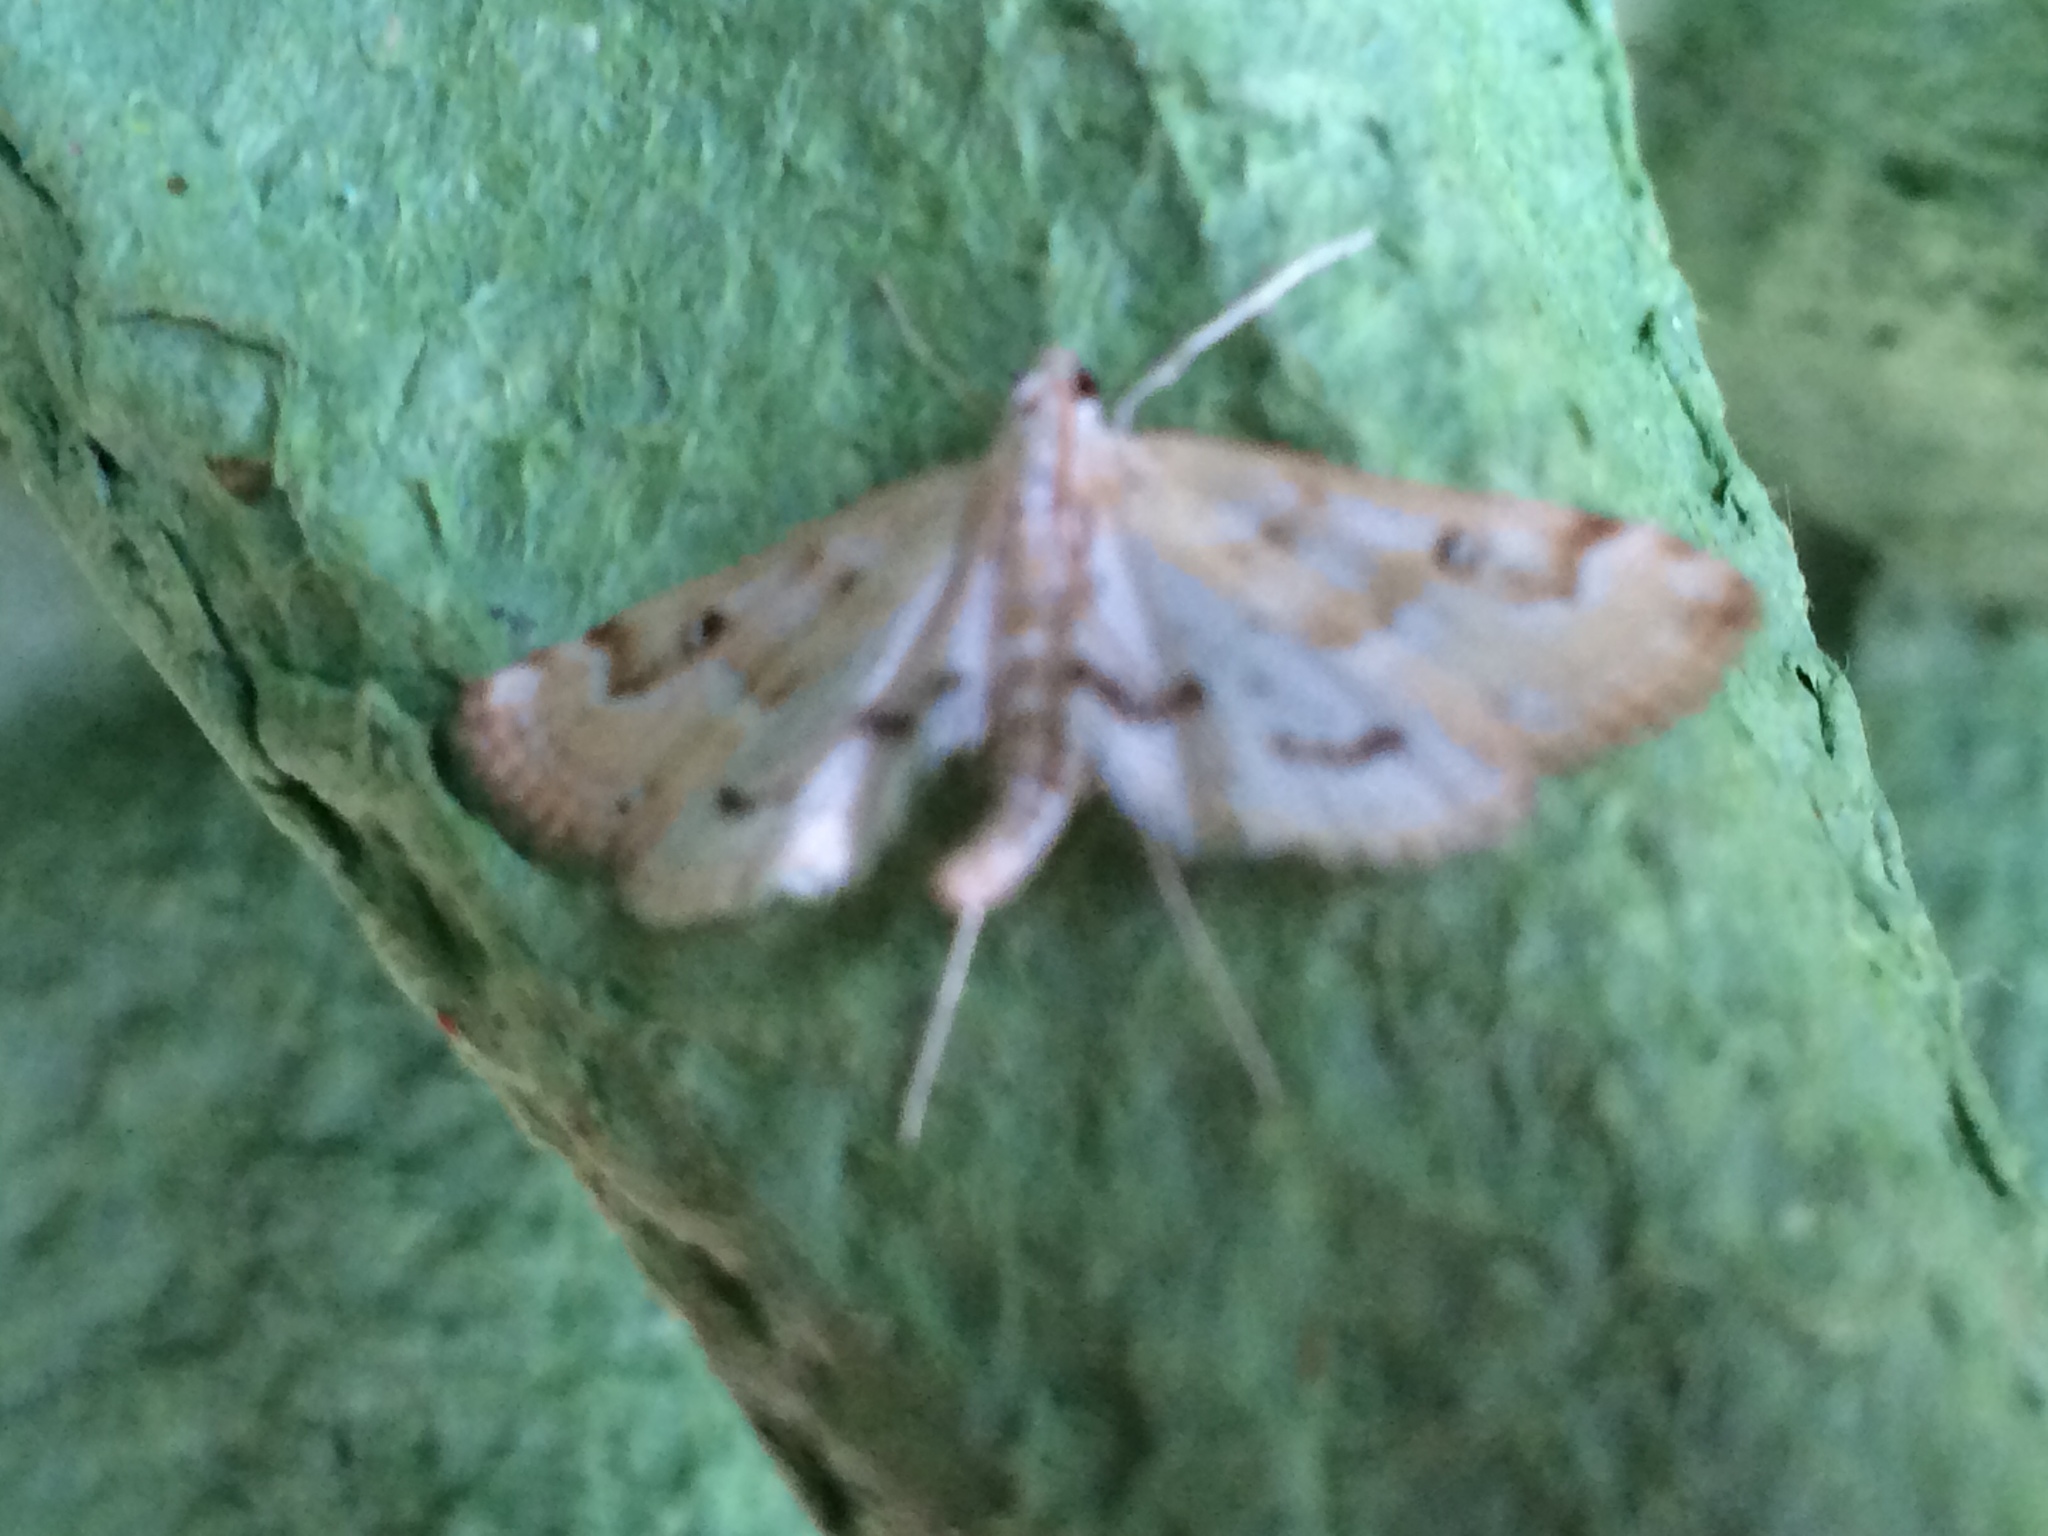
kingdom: Animalia
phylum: Arthropoda
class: Insecta
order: Lepidoptera
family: Crambidae
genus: Parapoynx
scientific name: Parapoynx stratiotata
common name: Ringed china-mark
